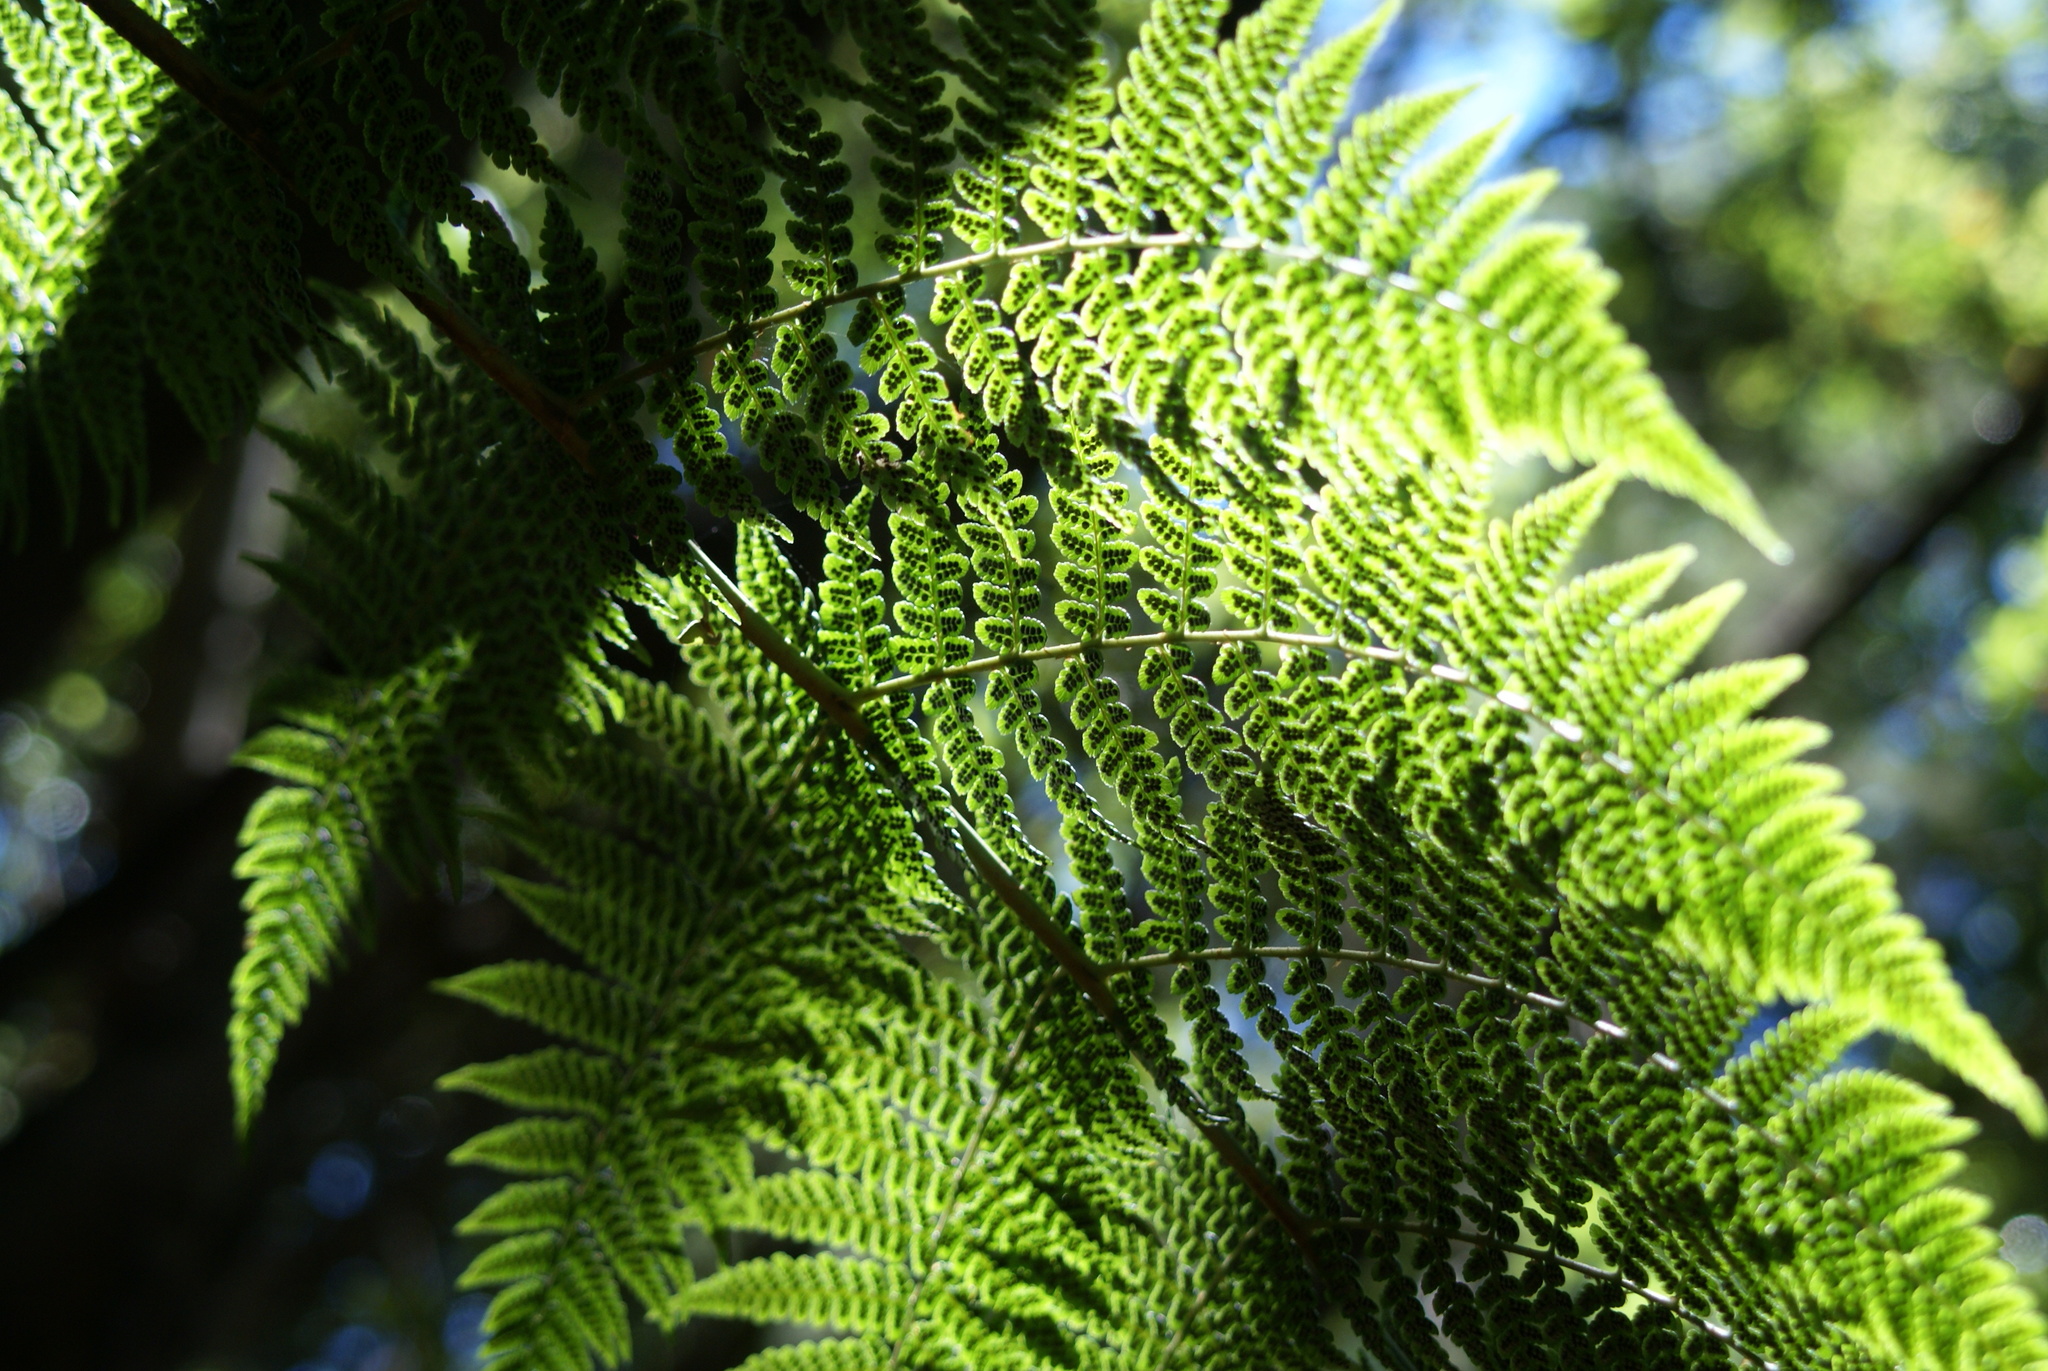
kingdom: Plantae
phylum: Tracheophyta
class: Polypodiopsida
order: Polypodiales
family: Dryopteridaceae
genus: Dryopteris
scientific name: Dryopteris oligodonta
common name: Canarian male-fern
